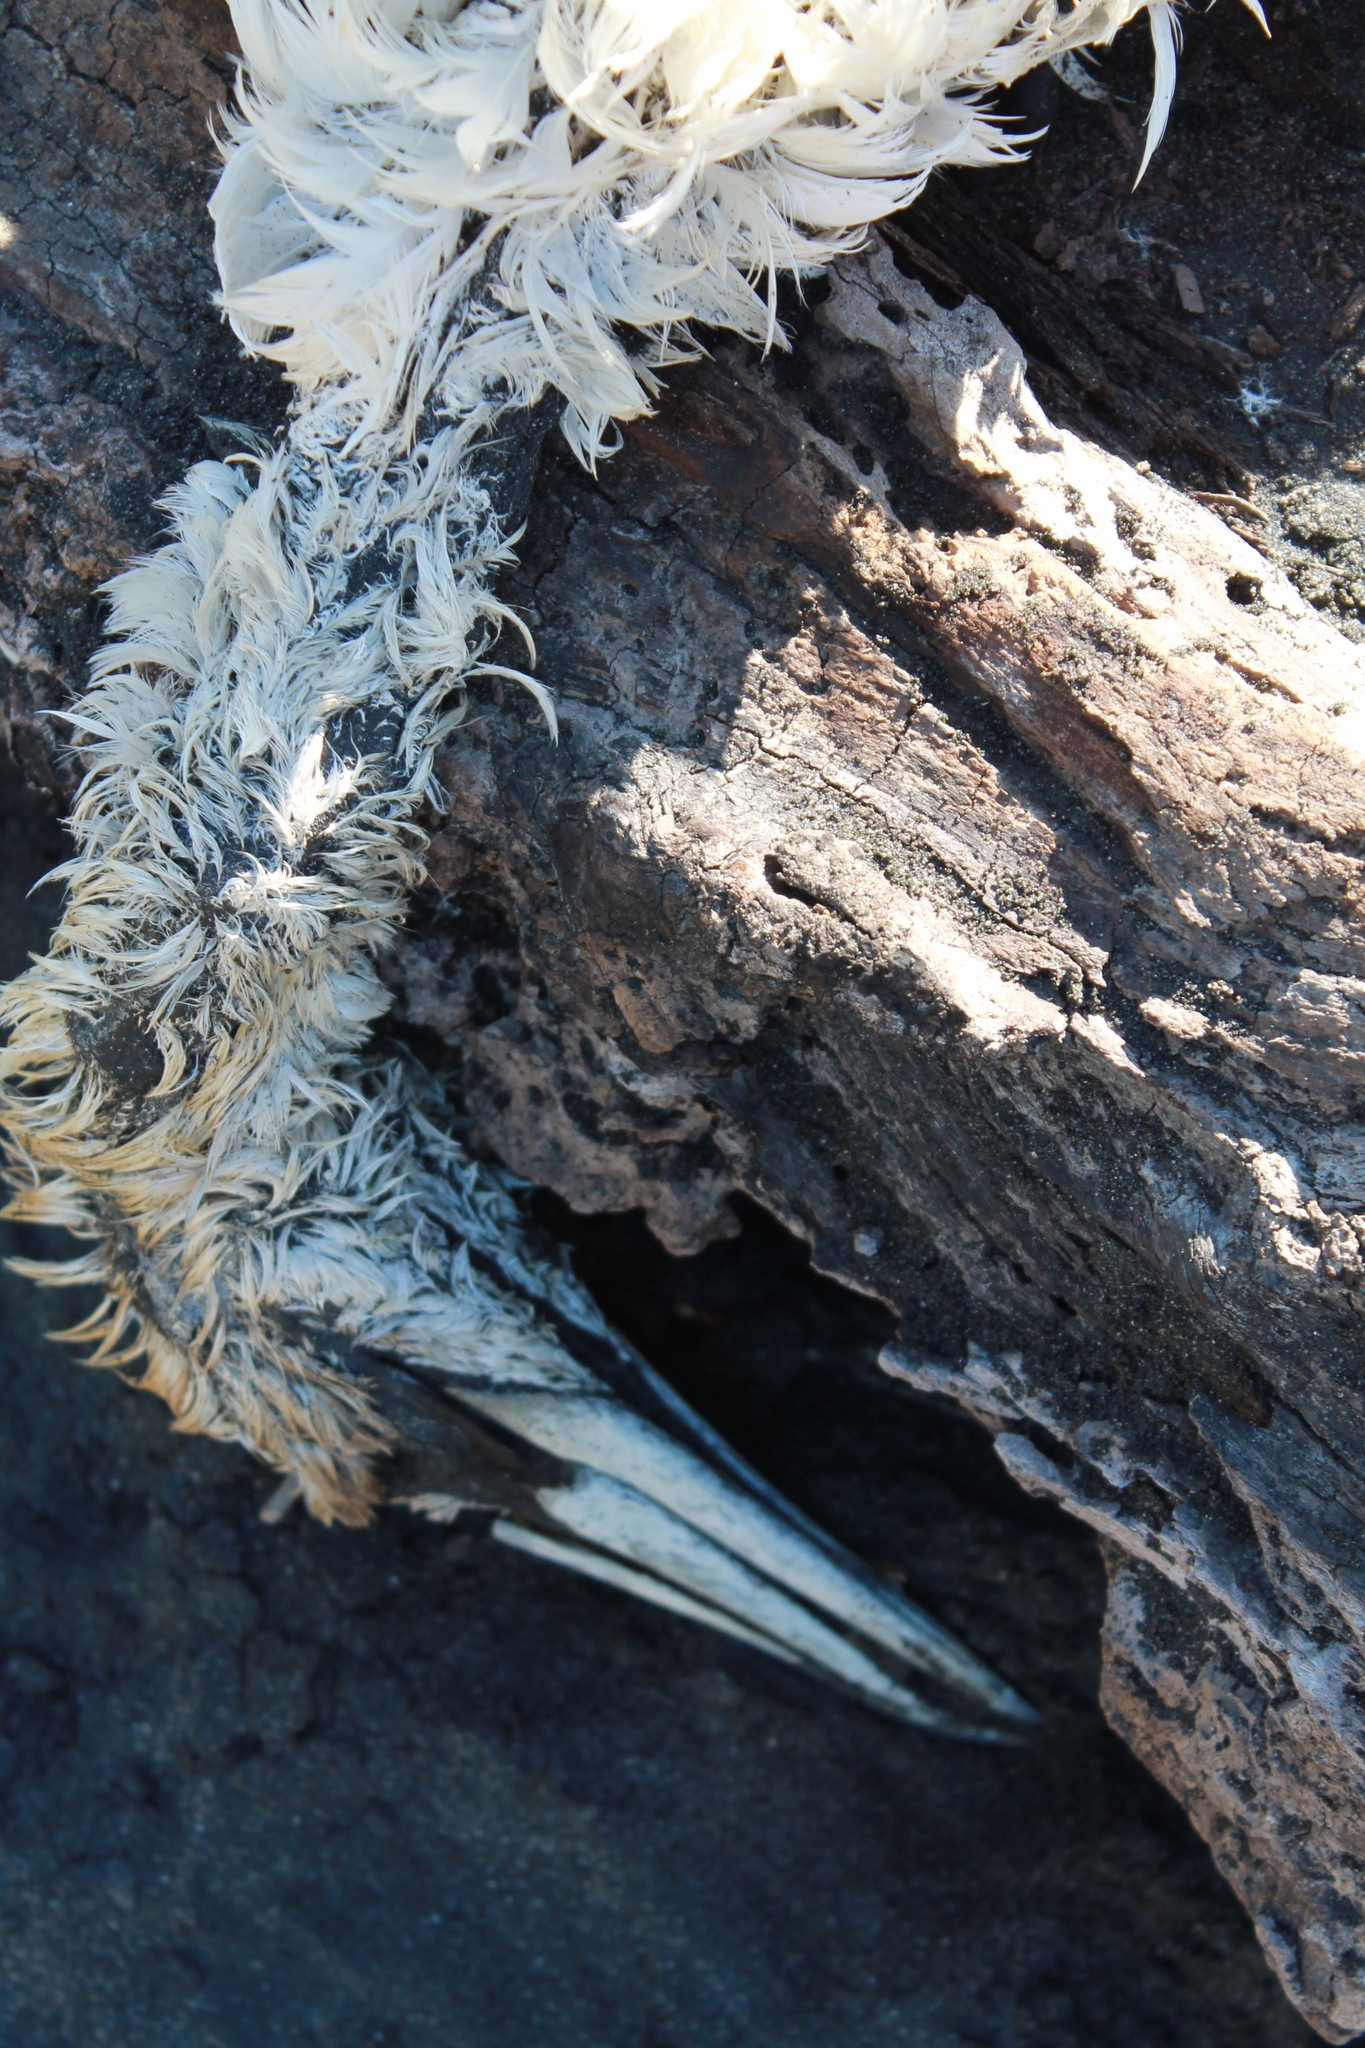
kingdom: Animalia
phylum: Chordata
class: Aves
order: Suliformes
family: Sulidae
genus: Morus
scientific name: Morus serrator
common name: Australasian gannet
